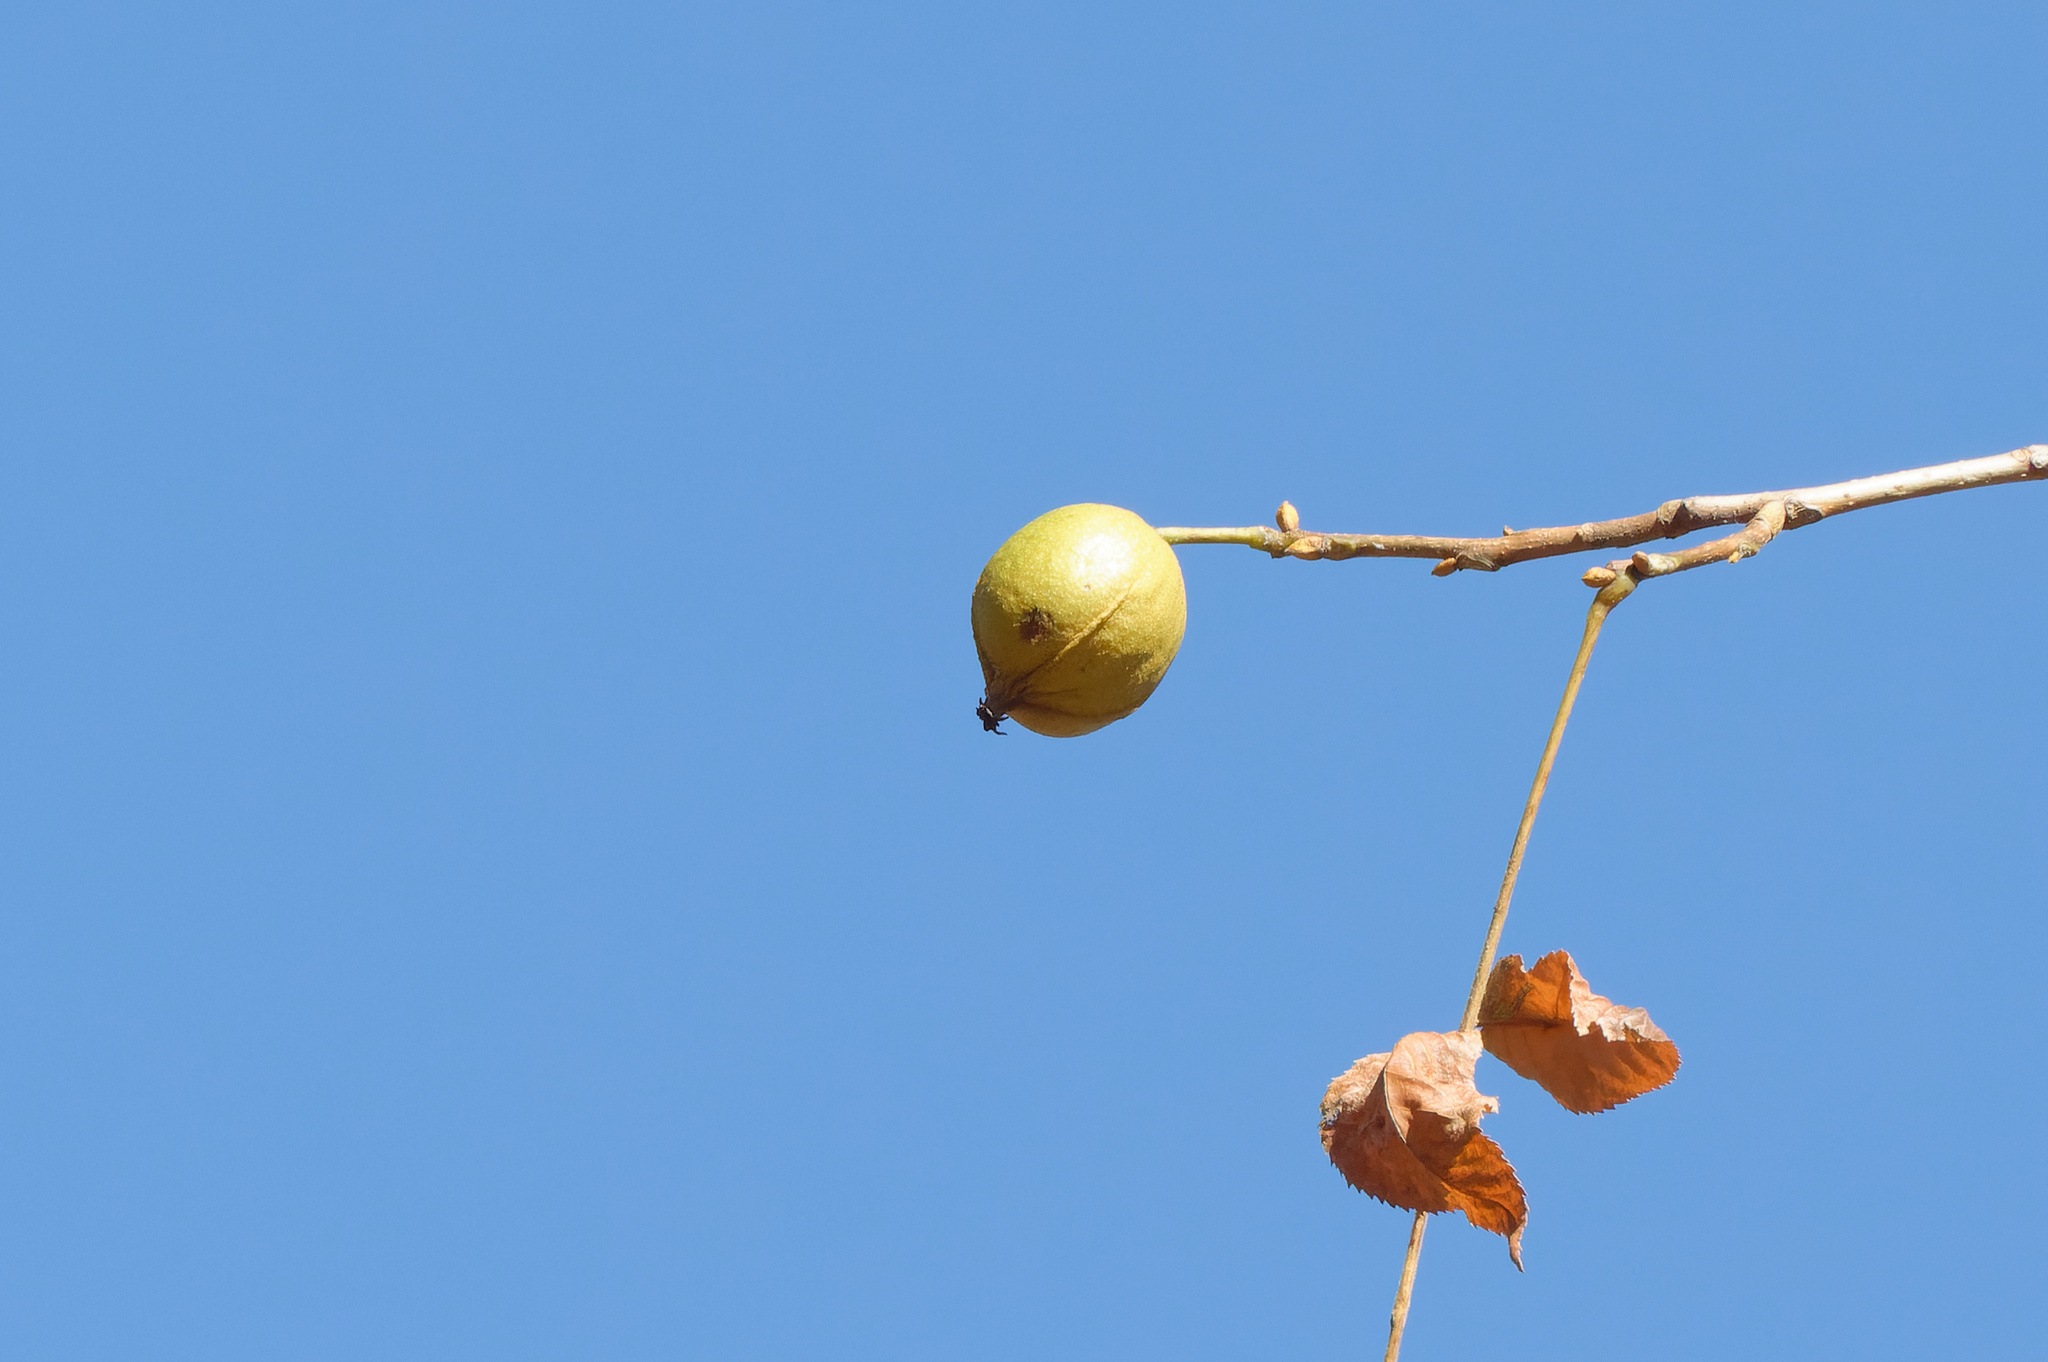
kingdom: Plantae
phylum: Tracheophyta
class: Magnoliopsida
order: Fagales
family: Juglandaceae
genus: Carya
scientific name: Carya cordiformis
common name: Bitternut hickory
